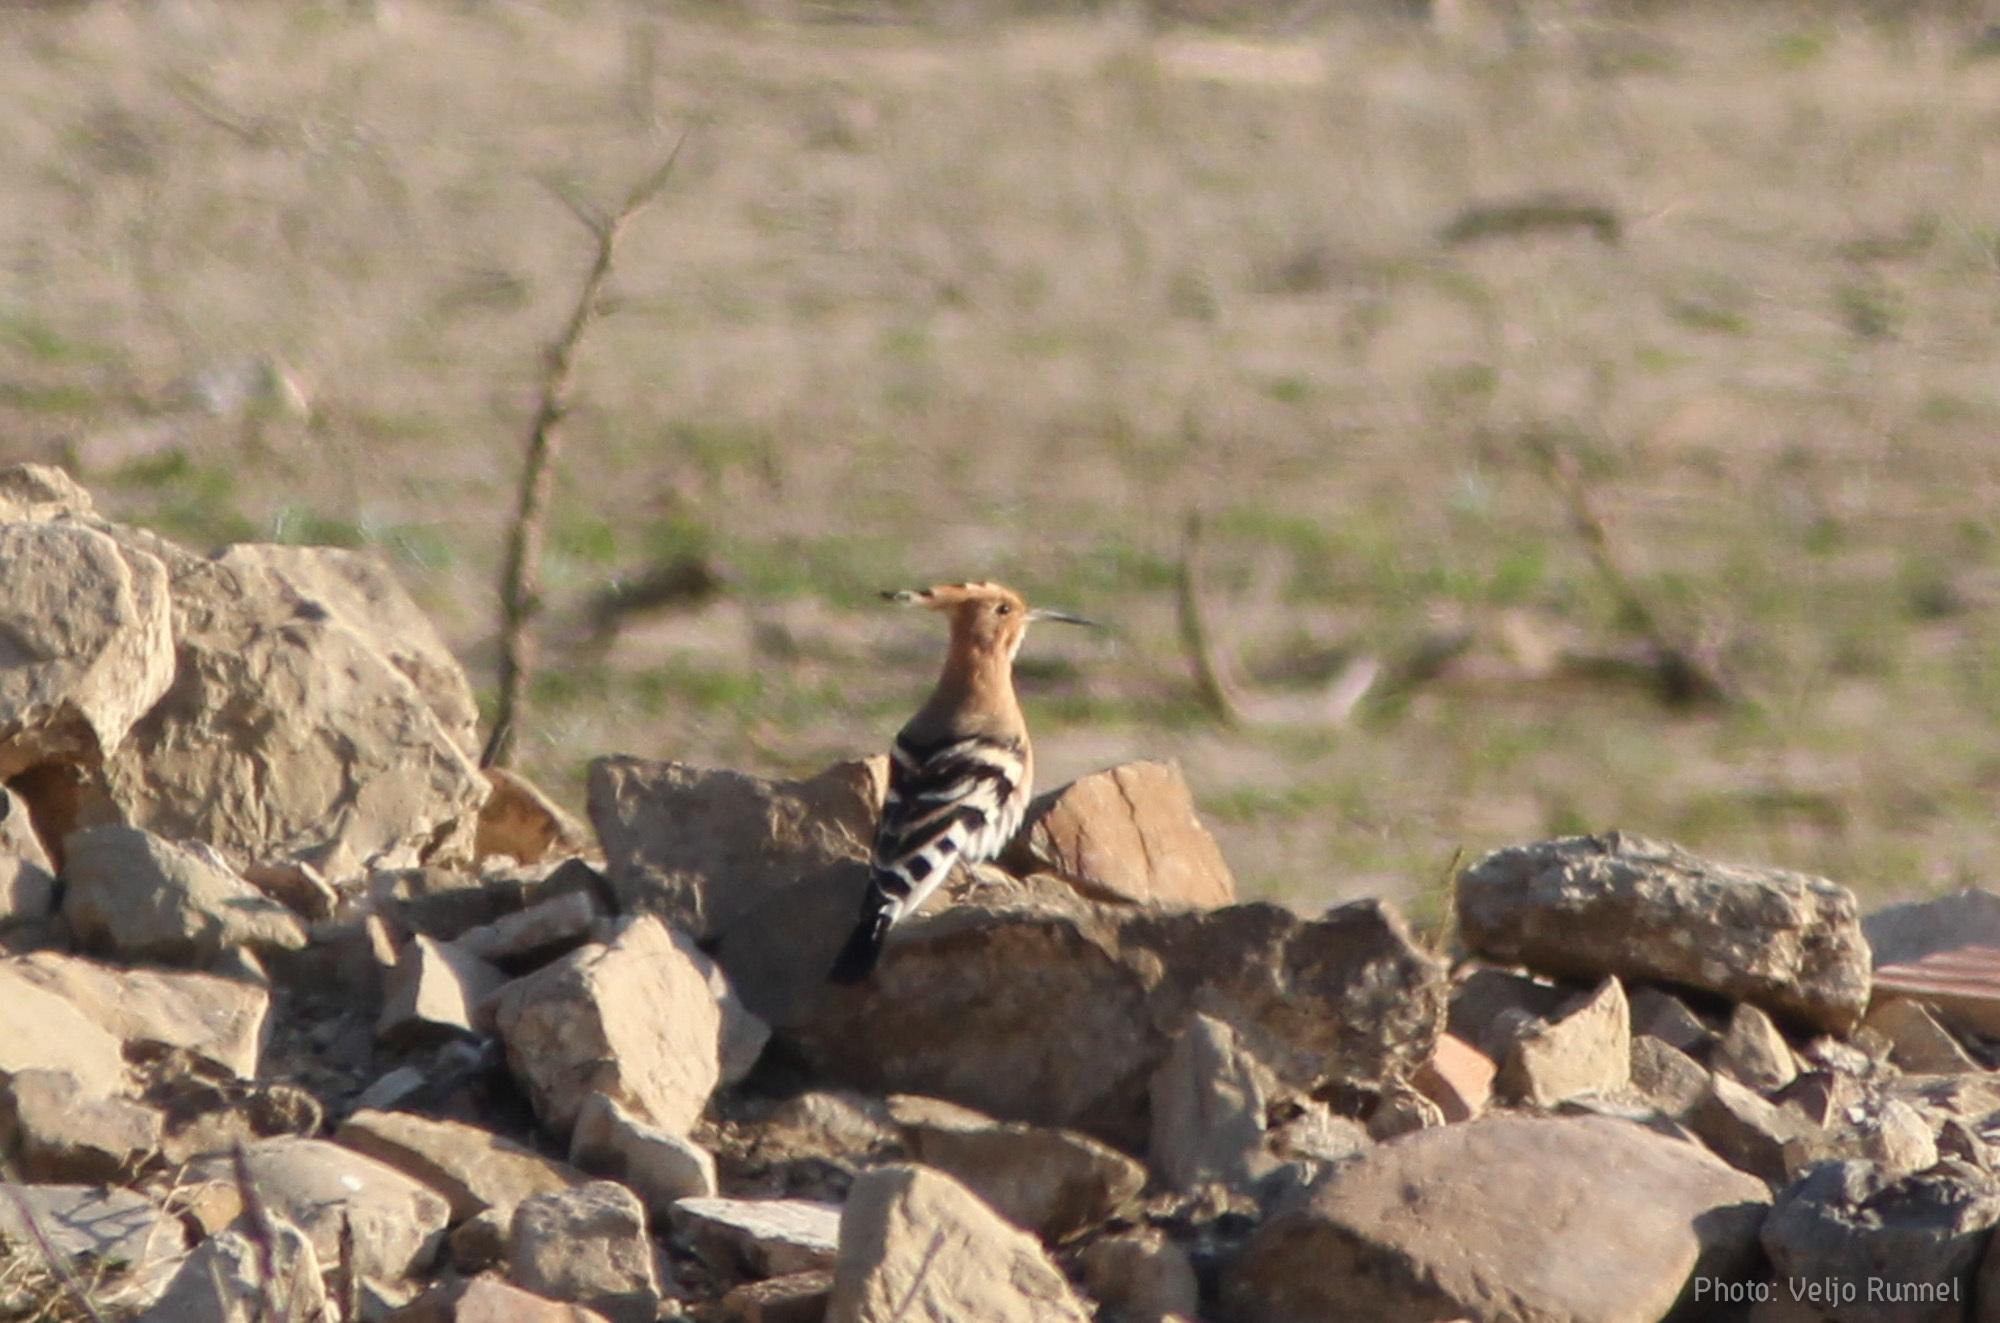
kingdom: Animalia
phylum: Chordata
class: Aves
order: Bucerotiformes
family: Upupidae
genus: Upupa
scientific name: Upupa epops
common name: Eurasian hoopoe
